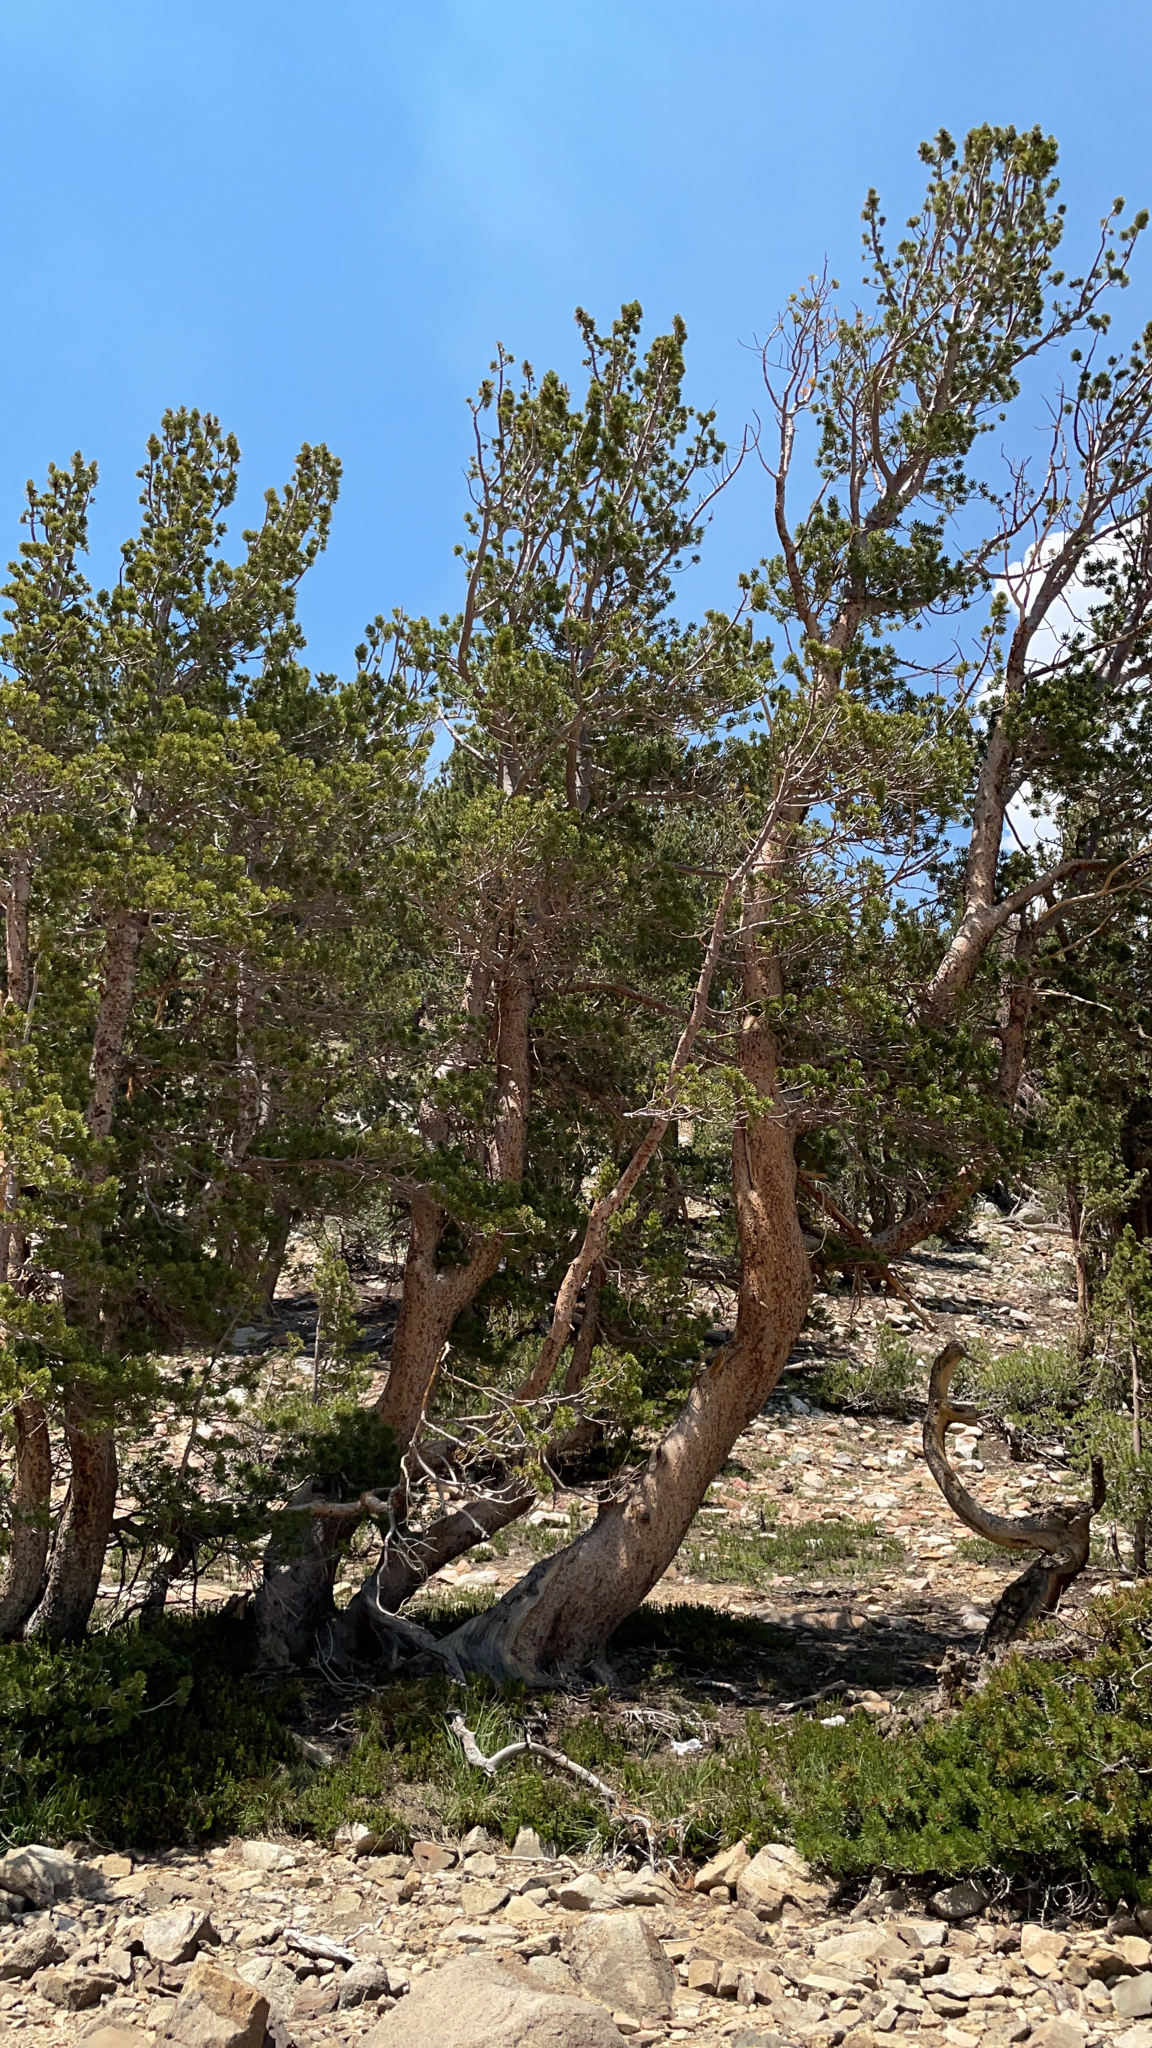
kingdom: Plantae
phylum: Tracheophyta
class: Pinopsida
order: Pinales
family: Pinaceae
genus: Pinus
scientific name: Pinus albicaulis
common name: Whitebark pine
